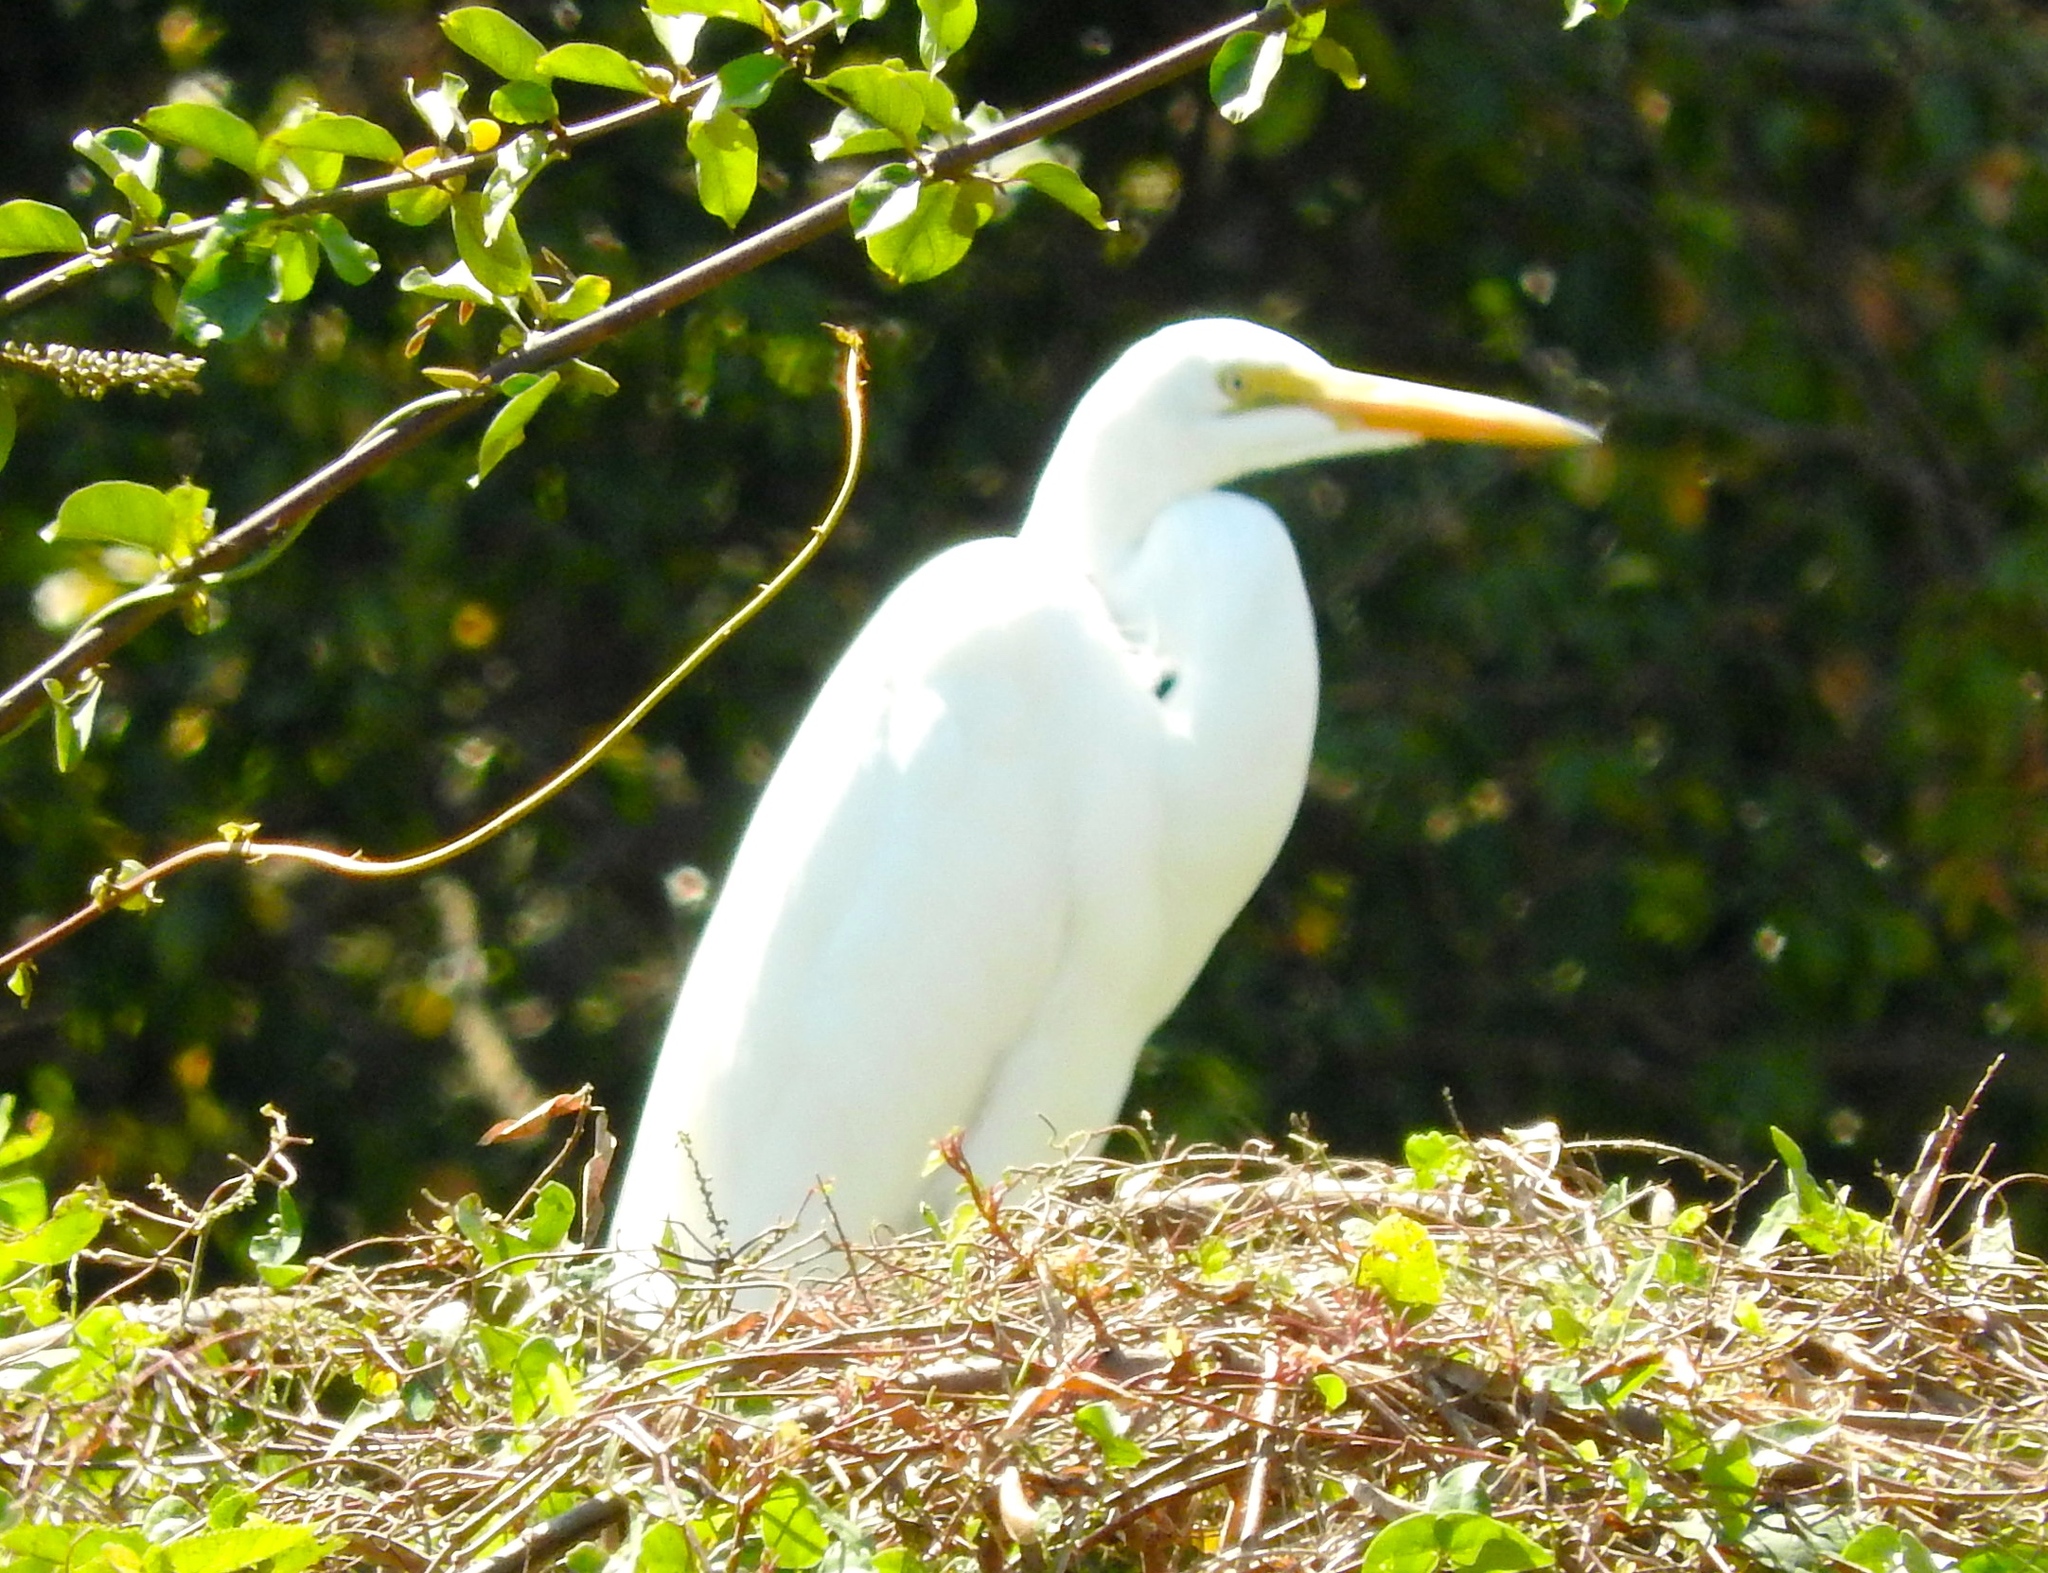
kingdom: Animalia
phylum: Chordata
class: Aves
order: Pelecaniformes
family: Ardeidae
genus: Ardea
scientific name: Ardea alba
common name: Great egret
